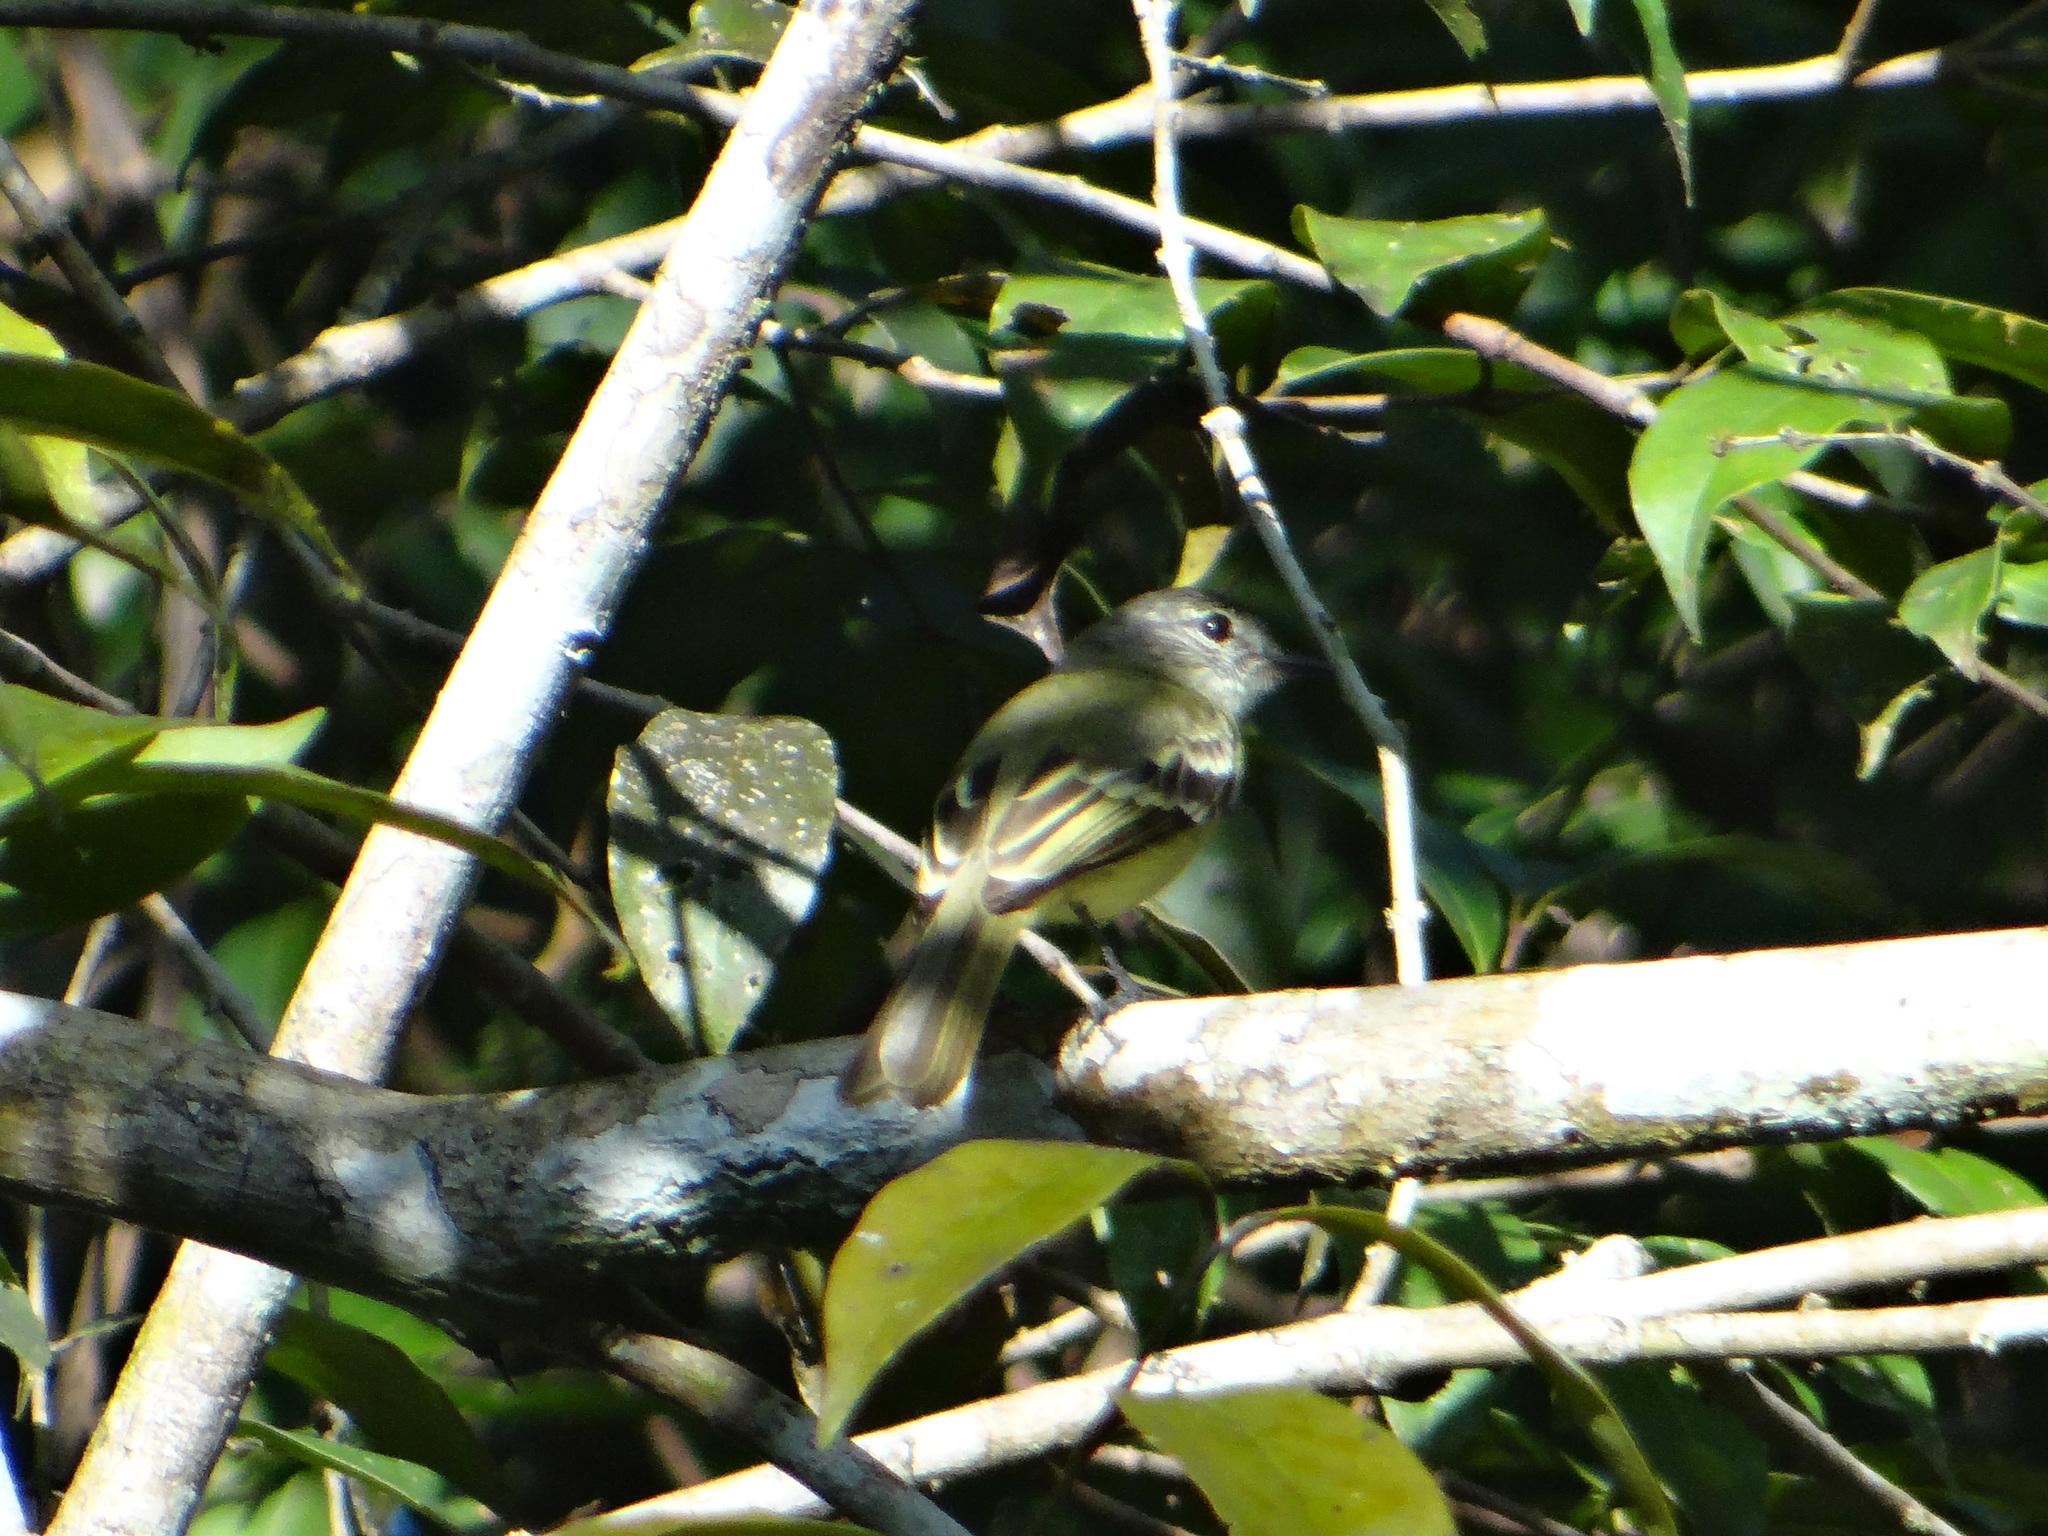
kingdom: Animalia
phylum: Chordata
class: Aves
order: Passeriformes
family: Tyrannidae
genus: Tolmomyias
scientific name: Tolmomyias poliocephalus
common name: Grey-crowned flatbill
